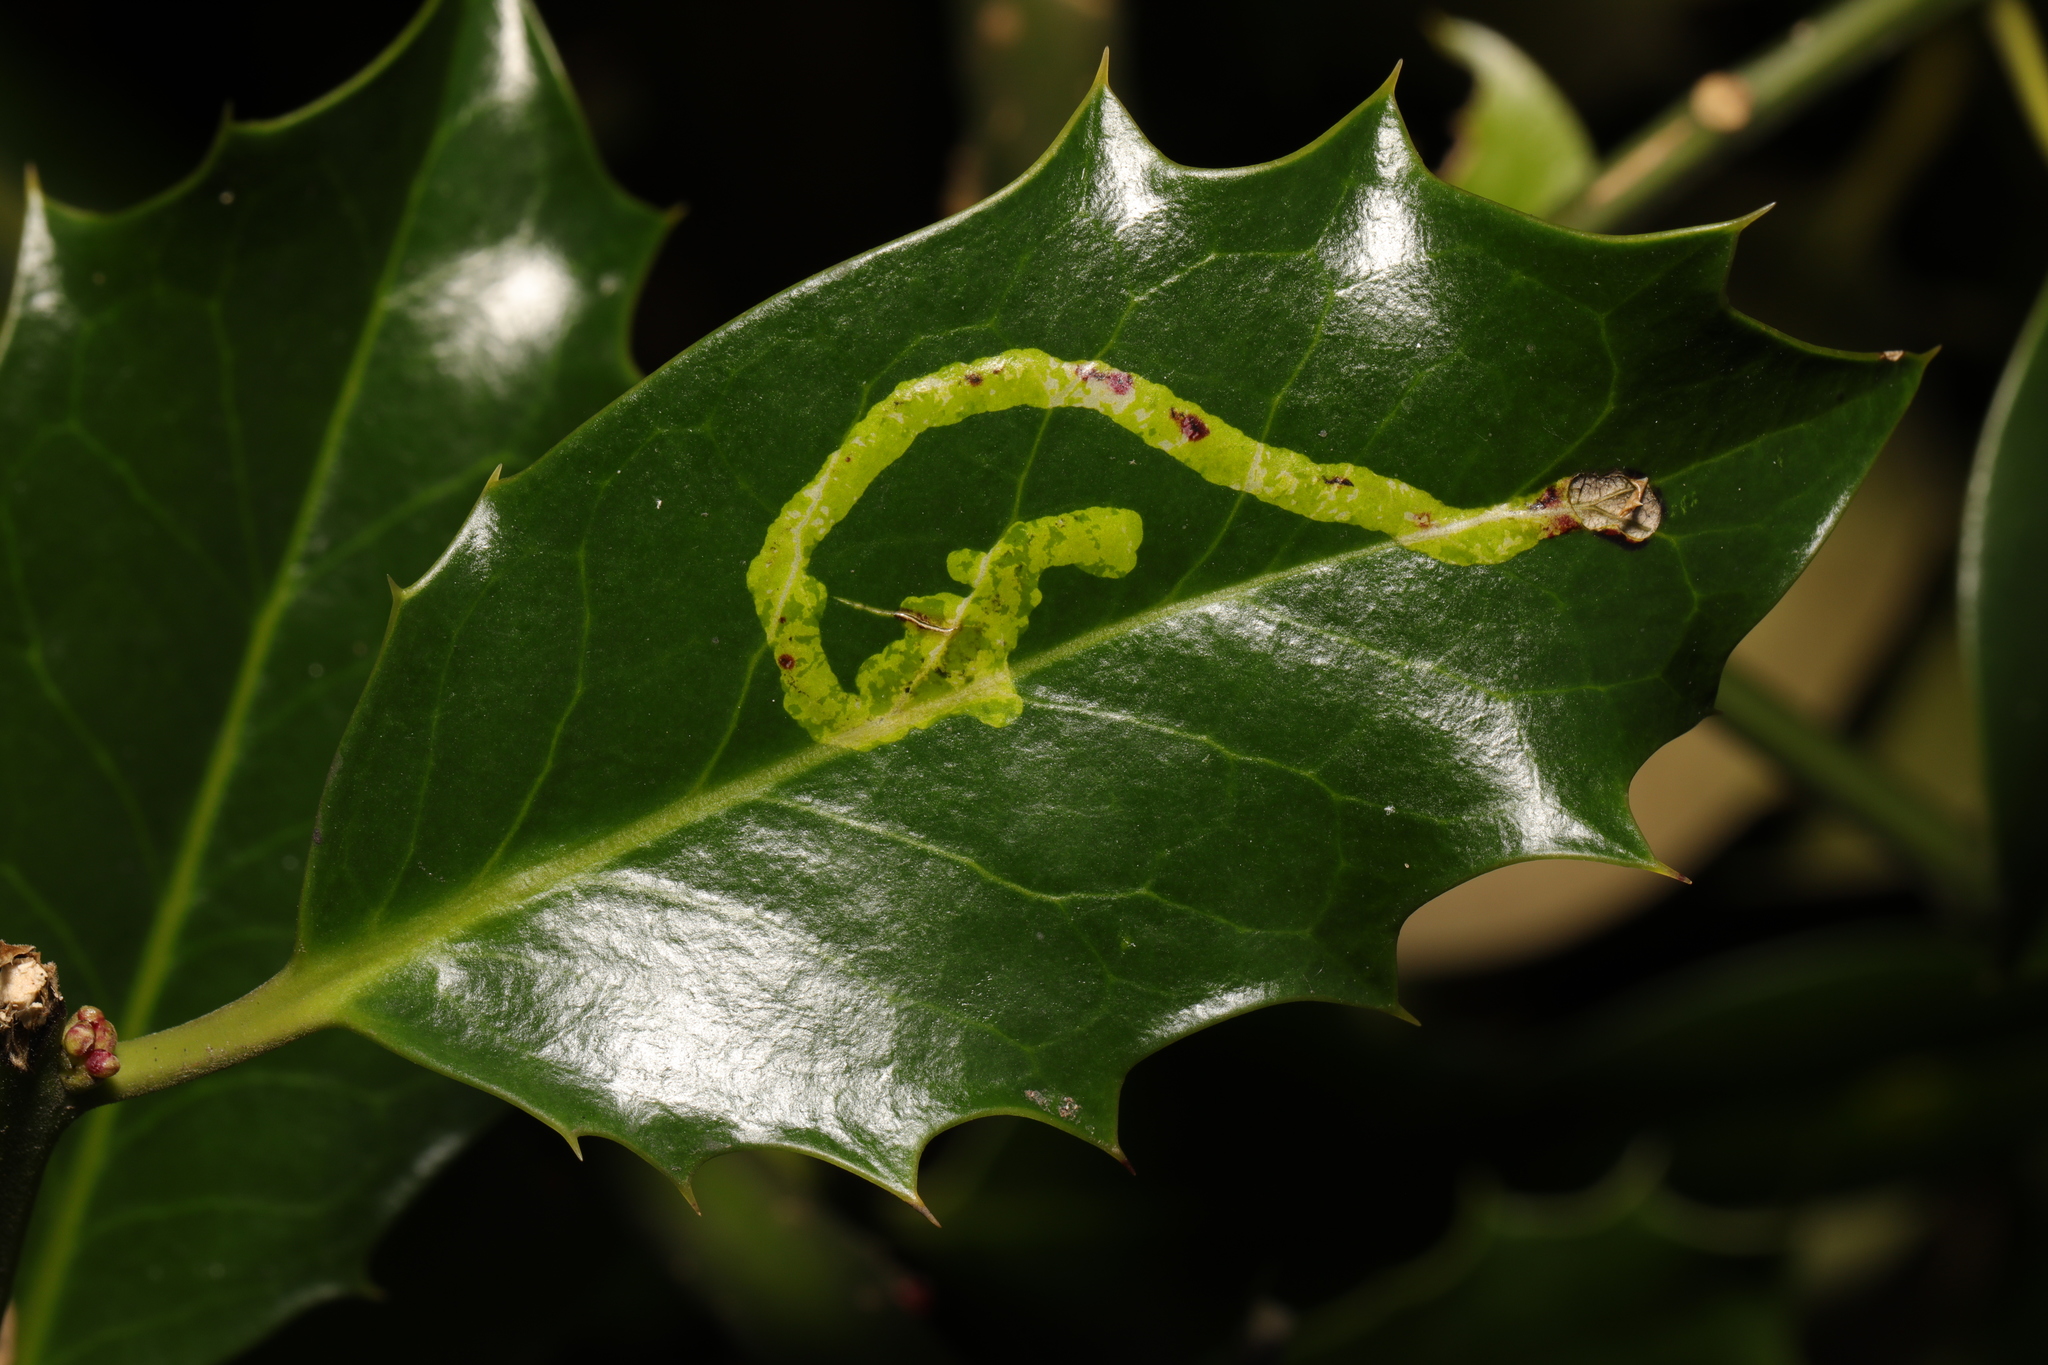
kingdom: Animalia
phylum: Arthropoda
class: Insecta
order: Diptera
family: Agromyzidae
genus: Phytomyza
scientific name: Phytomyza ilicis
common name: Holly leafminer
